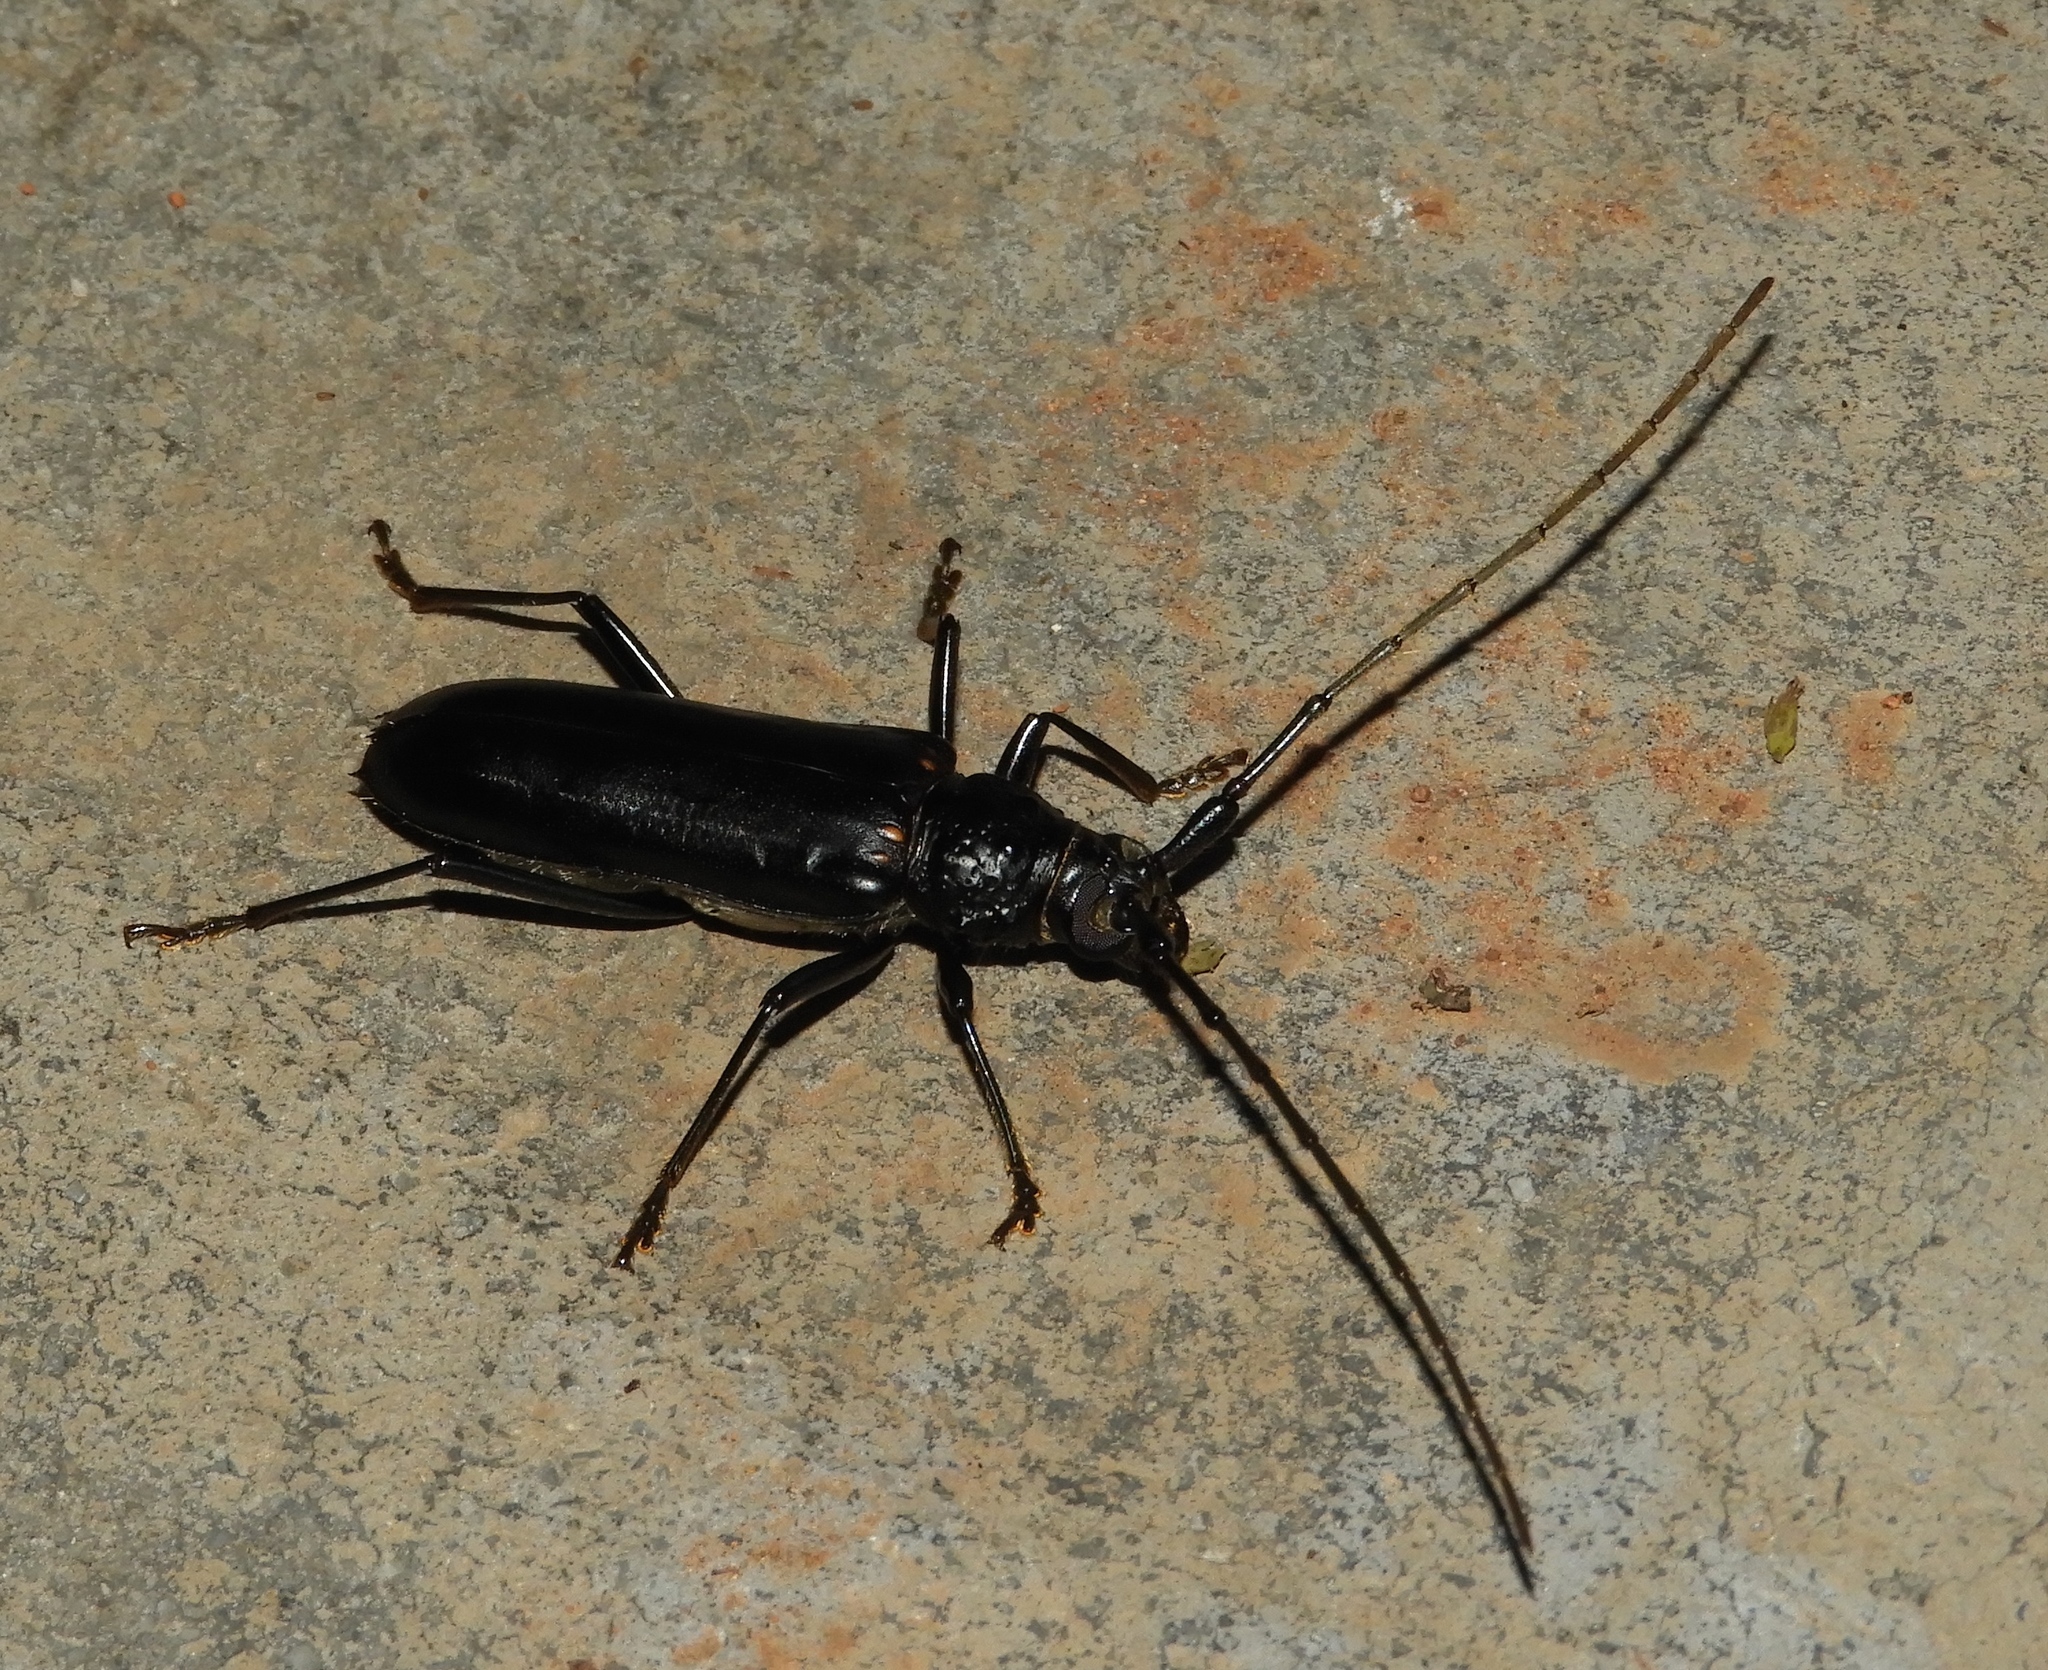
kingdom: Animalia
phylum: Arthropoda
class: Insecta
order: Coleoptera
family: Cerambycidae
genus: Susuacanga
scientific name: Susuacanga ulkei
